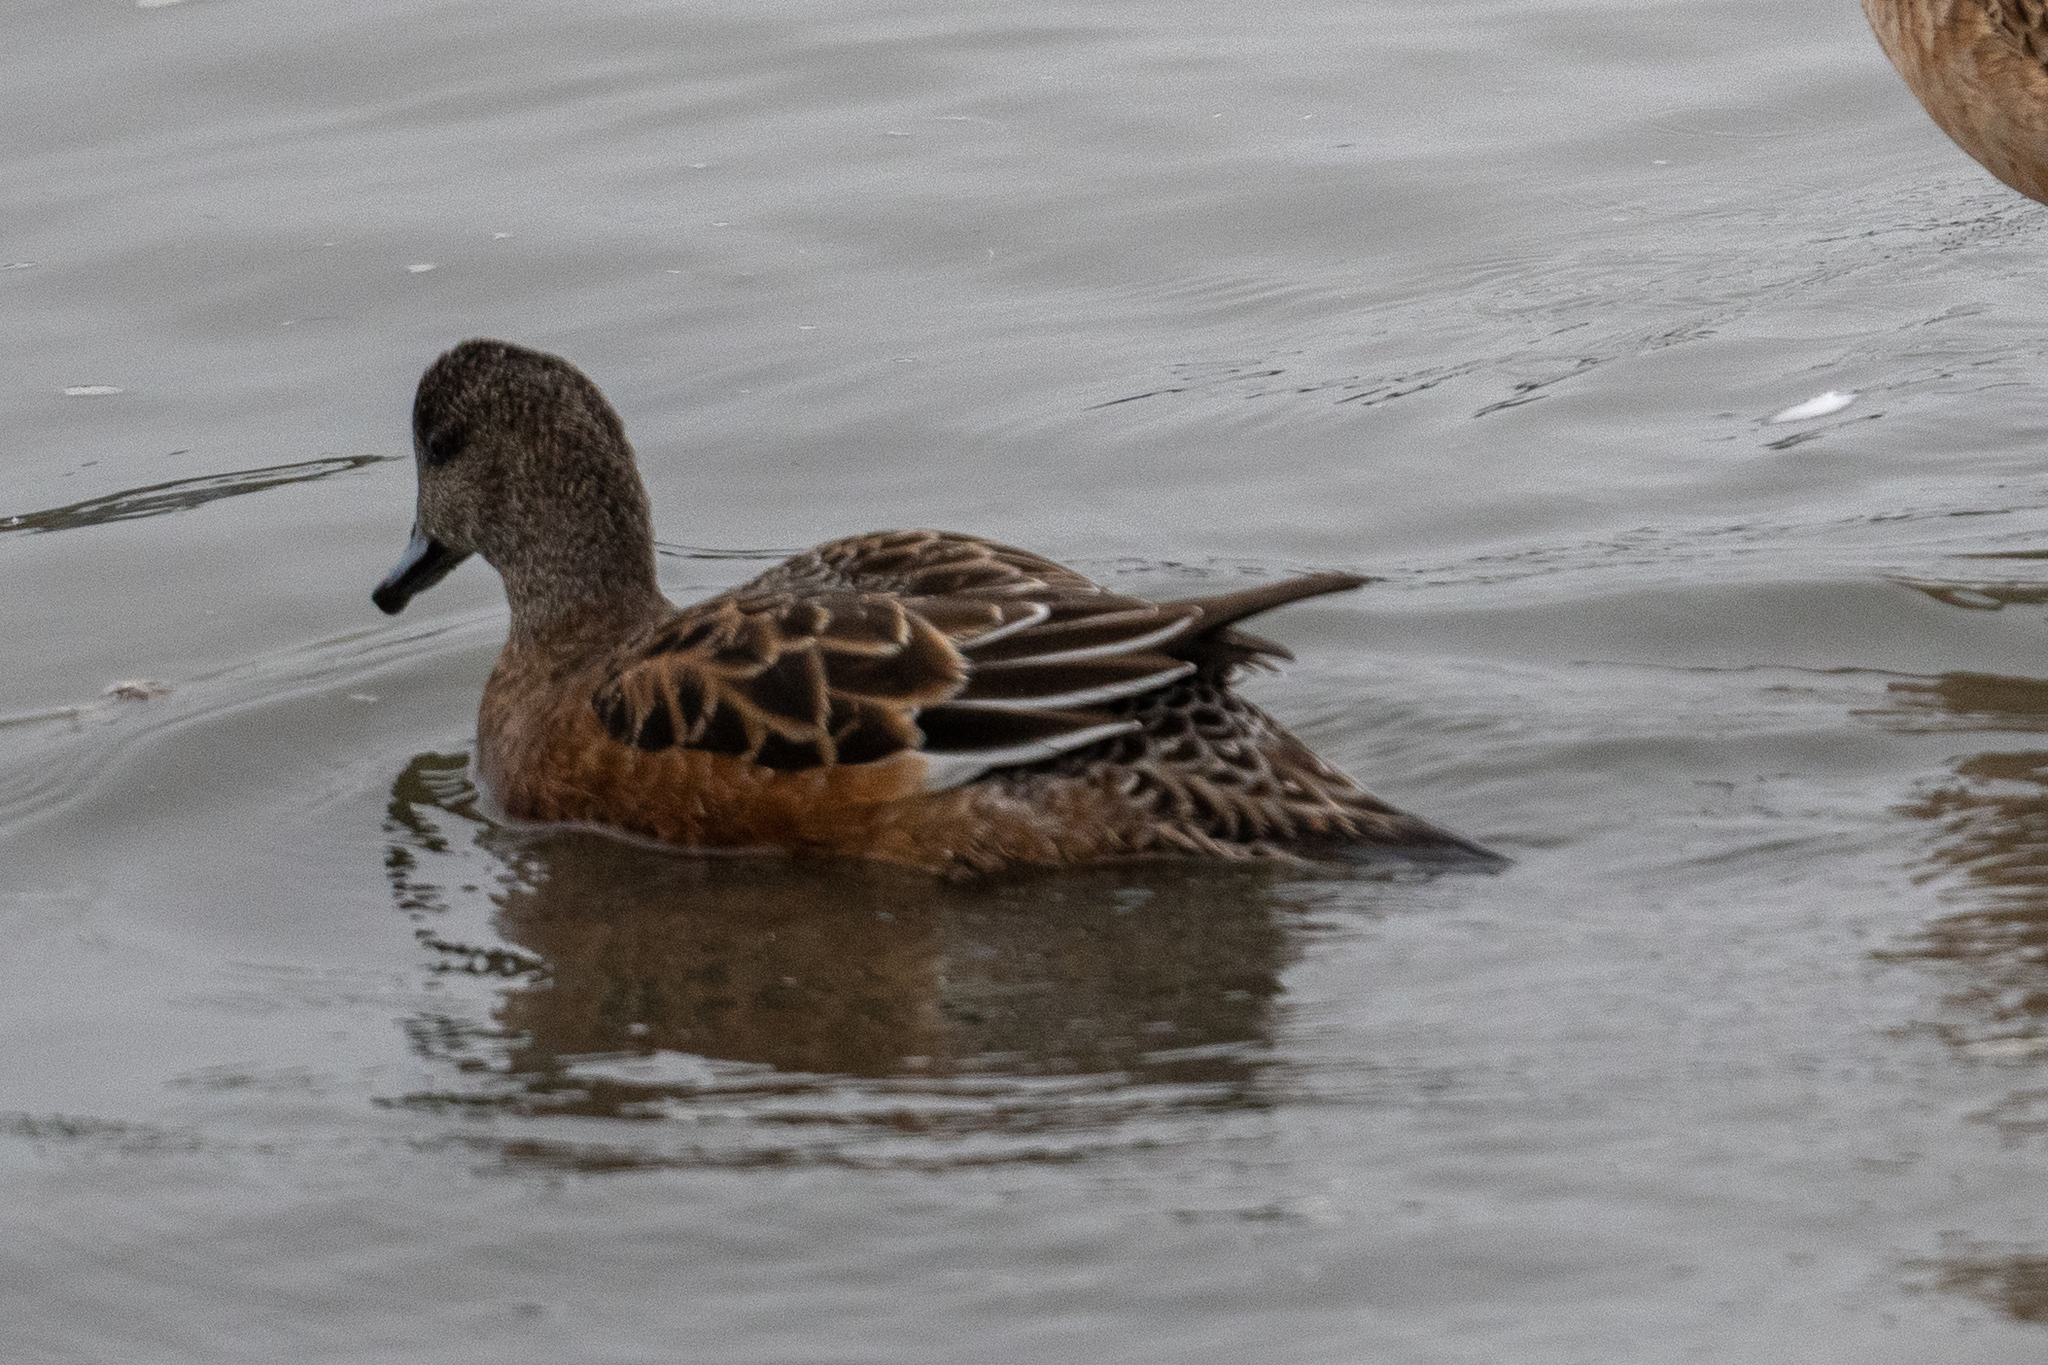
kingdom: Animalia
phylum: Chordata
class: Aves
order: Anseriformes
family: Anatidae
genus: Mareca
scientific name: Mareca americana
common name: American wigeon
